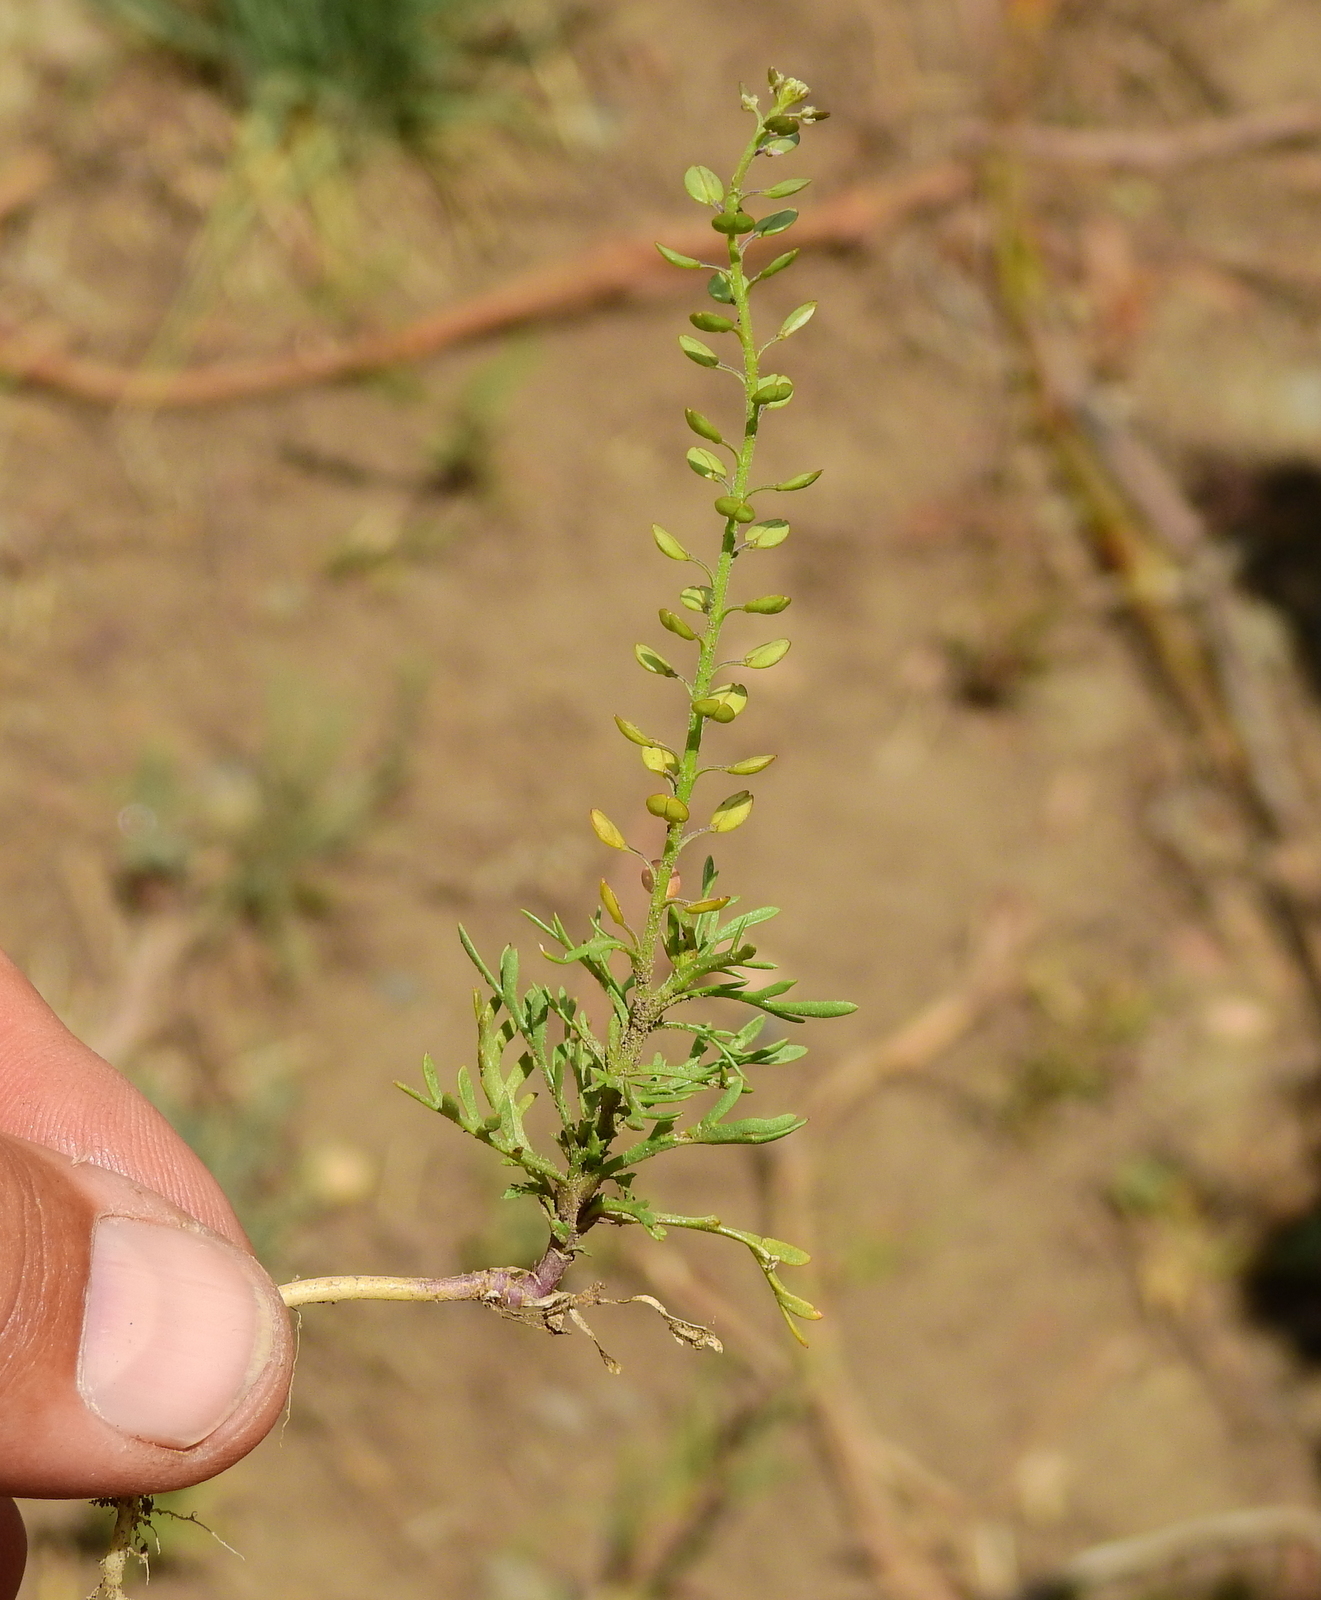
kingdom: Plantae
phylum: Tracheophyta
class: Magnoliopsida
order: Brassicales
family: Brassicaceae
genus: Lepidium
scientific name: Lepidium tandilense
